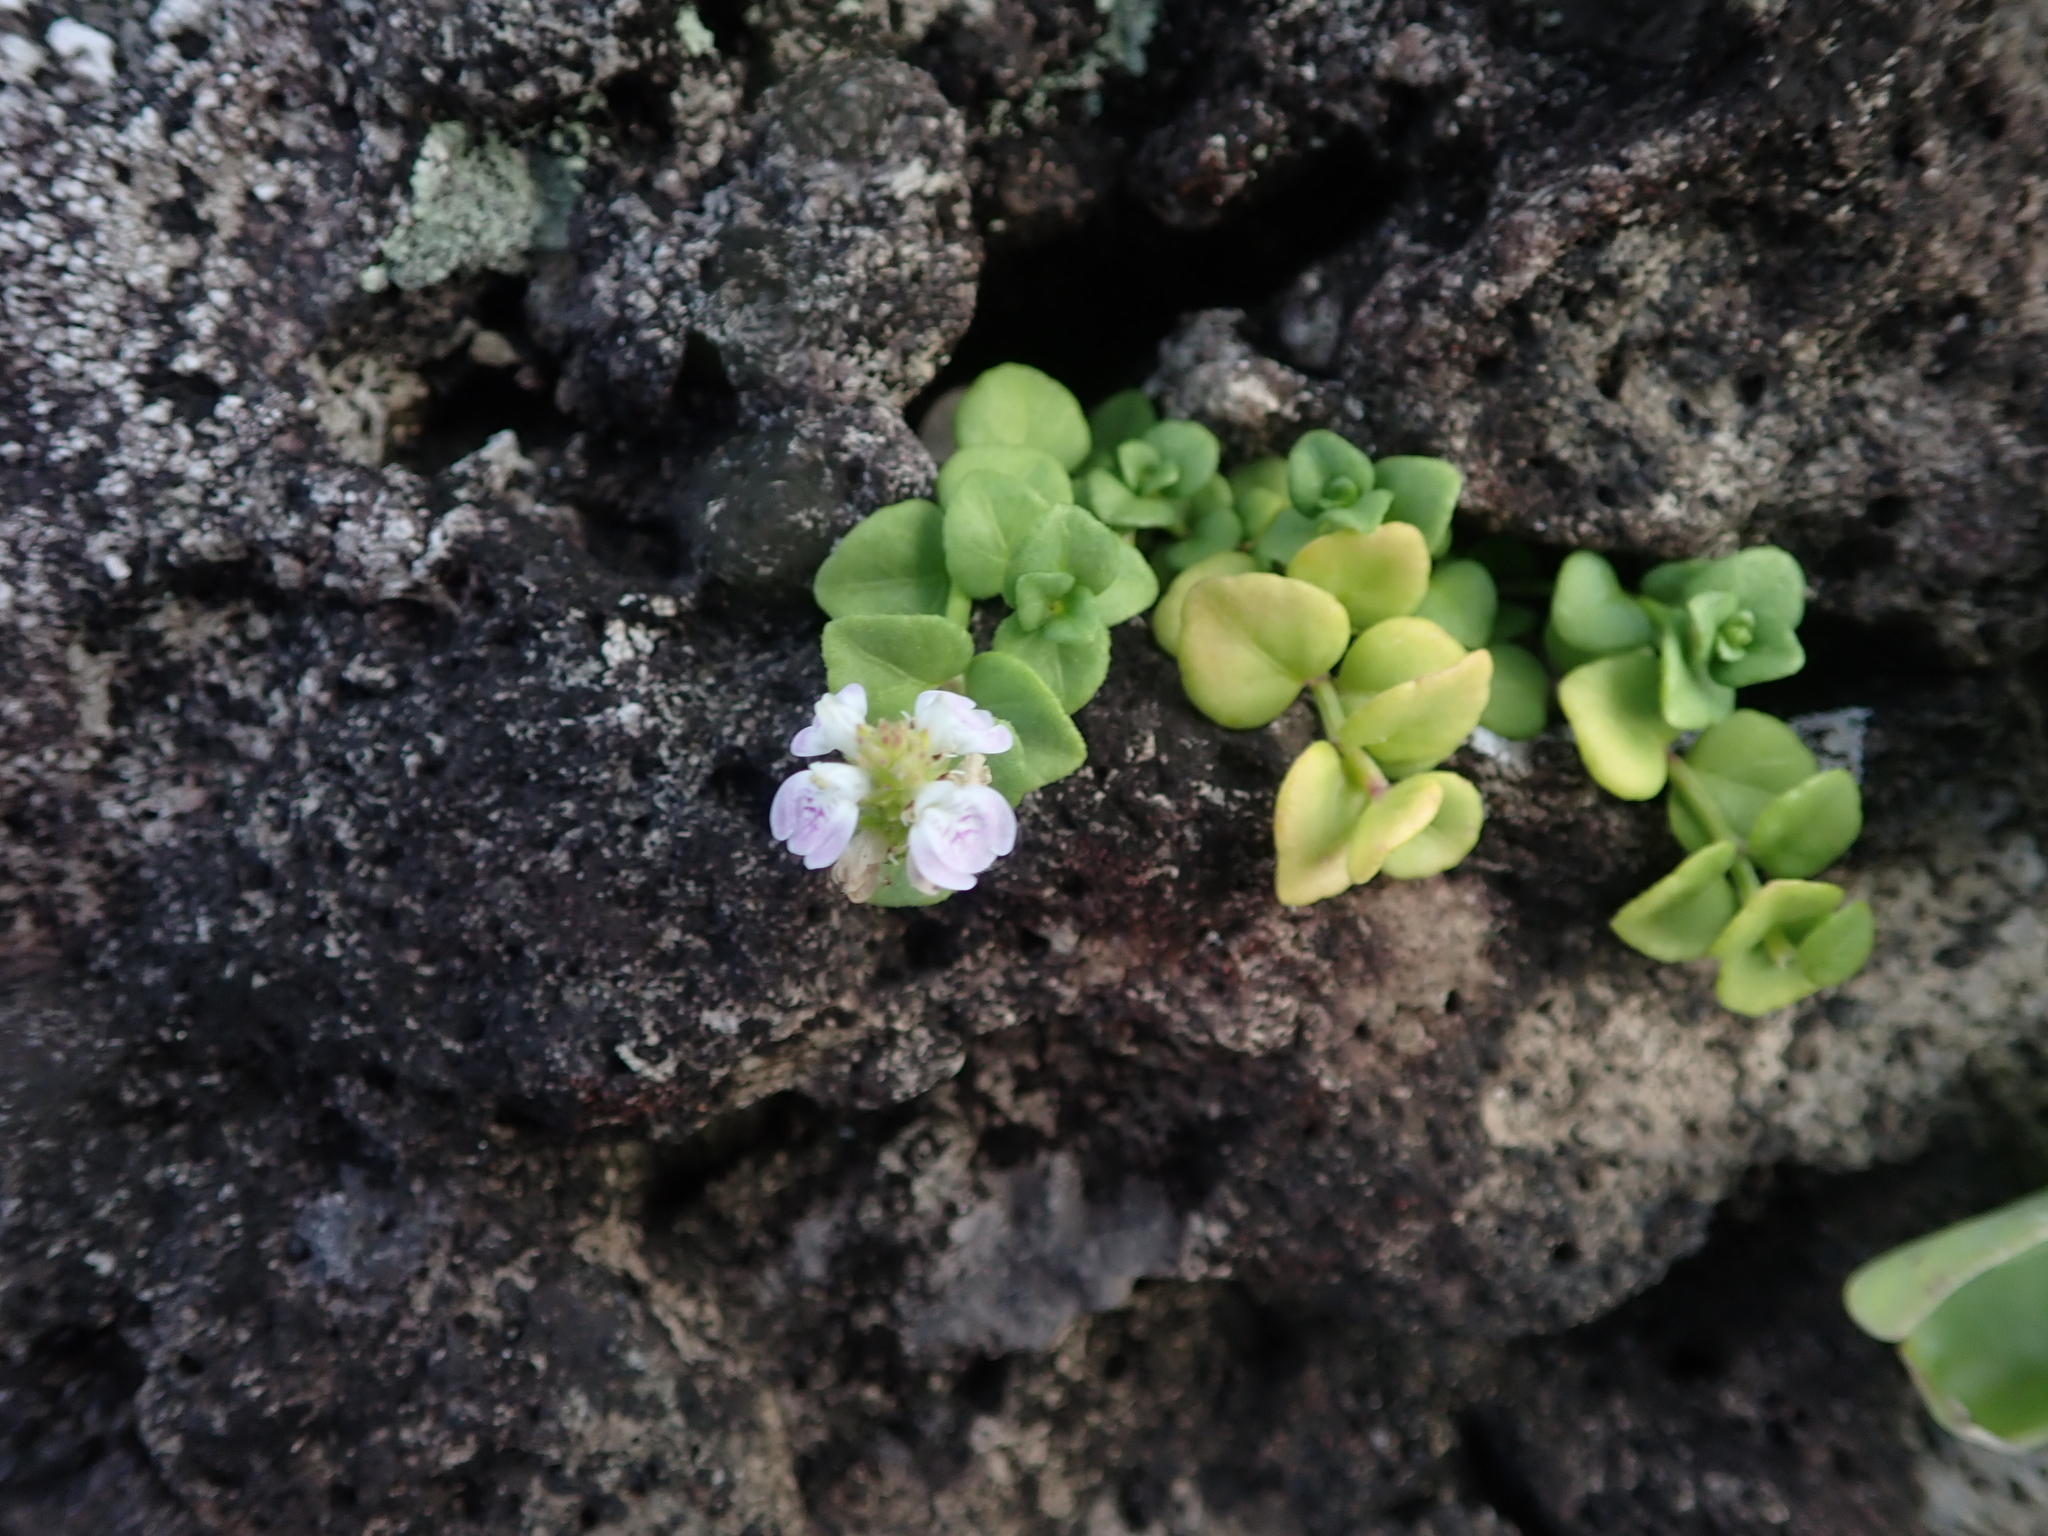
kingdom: Plantae
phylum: Tracheophyta
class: Magnoliopsida
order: Lamiales
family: Acanthaceae
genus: Rostellularia
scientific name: Rostellularia hayatae
